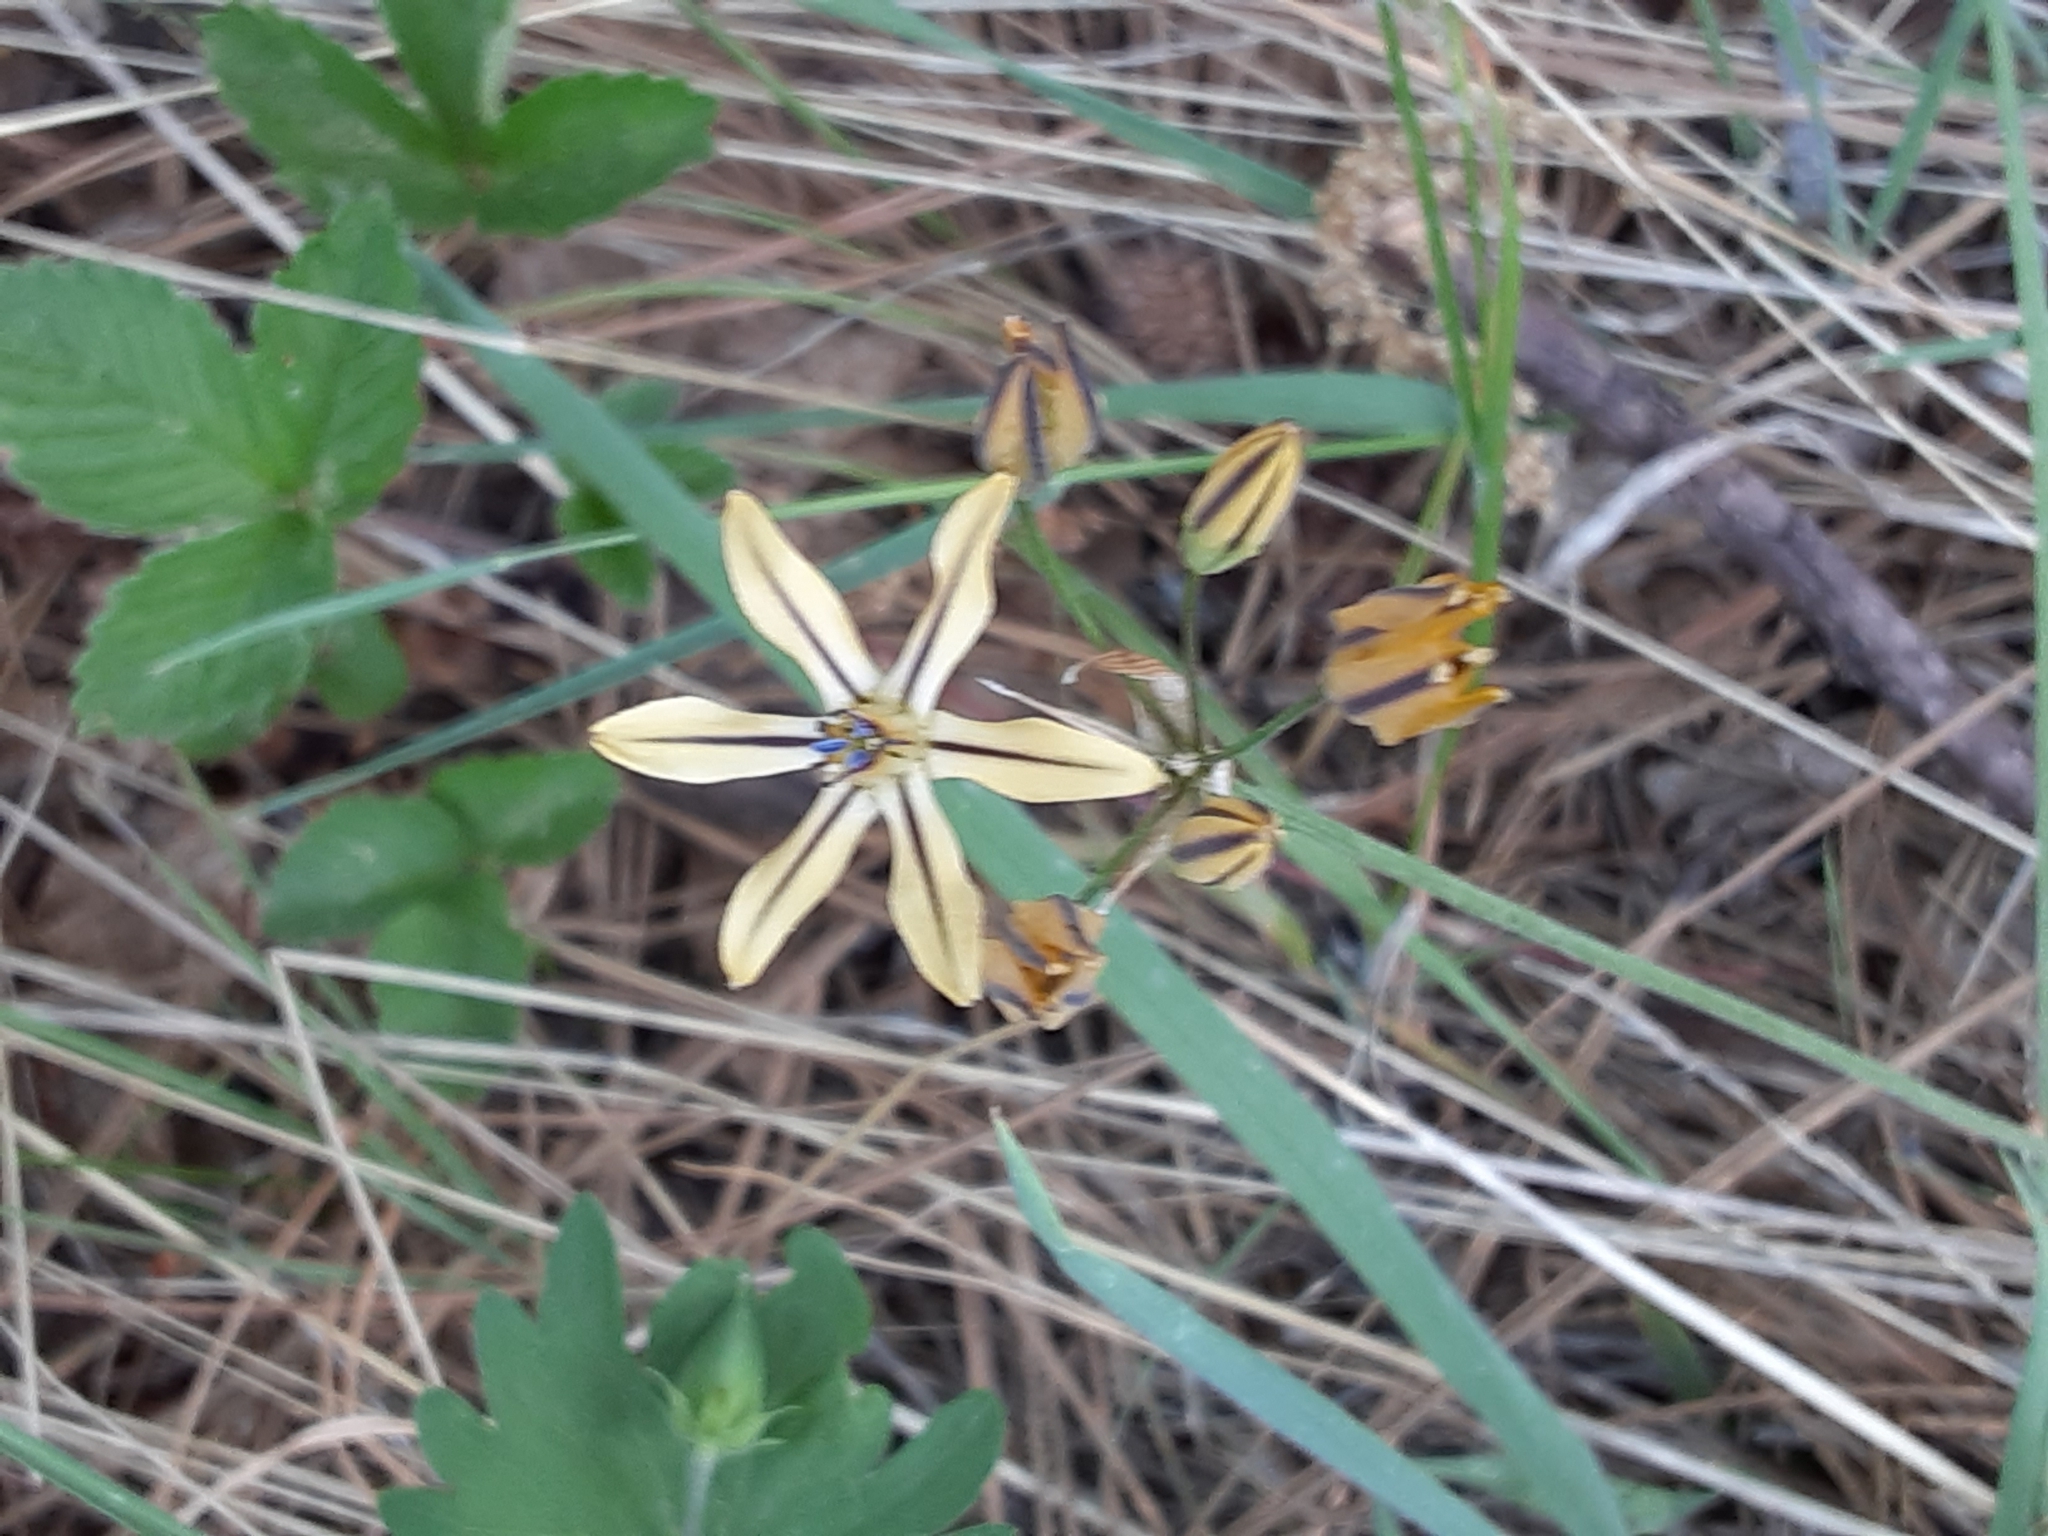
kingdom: Plantae
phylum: Tracheophyta
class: Liliopsida
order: Asparagales
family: Asparagaceae
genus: Triteleia
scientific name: Triteleia ixioides
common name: Yellow-brodiaea
